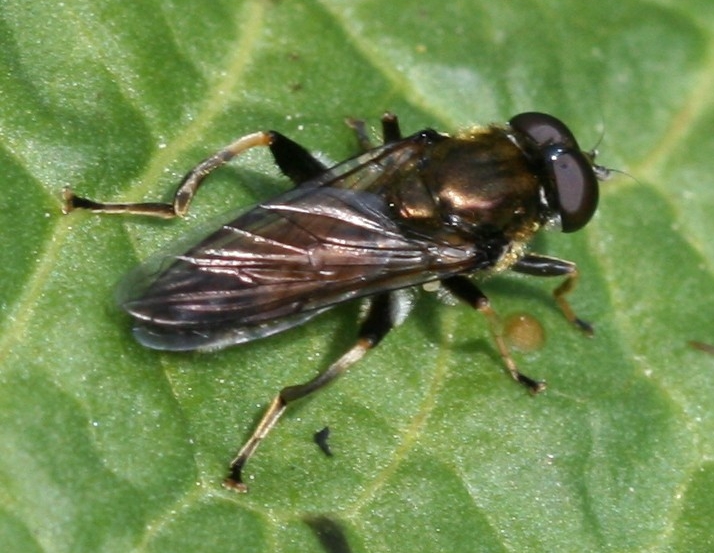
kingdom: Animalia
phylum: Arthropoda
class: Insecta
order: Diptera
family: Syrphidae
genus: Xylota
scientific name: Xylota segnis
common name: Brown-toed forest fly
